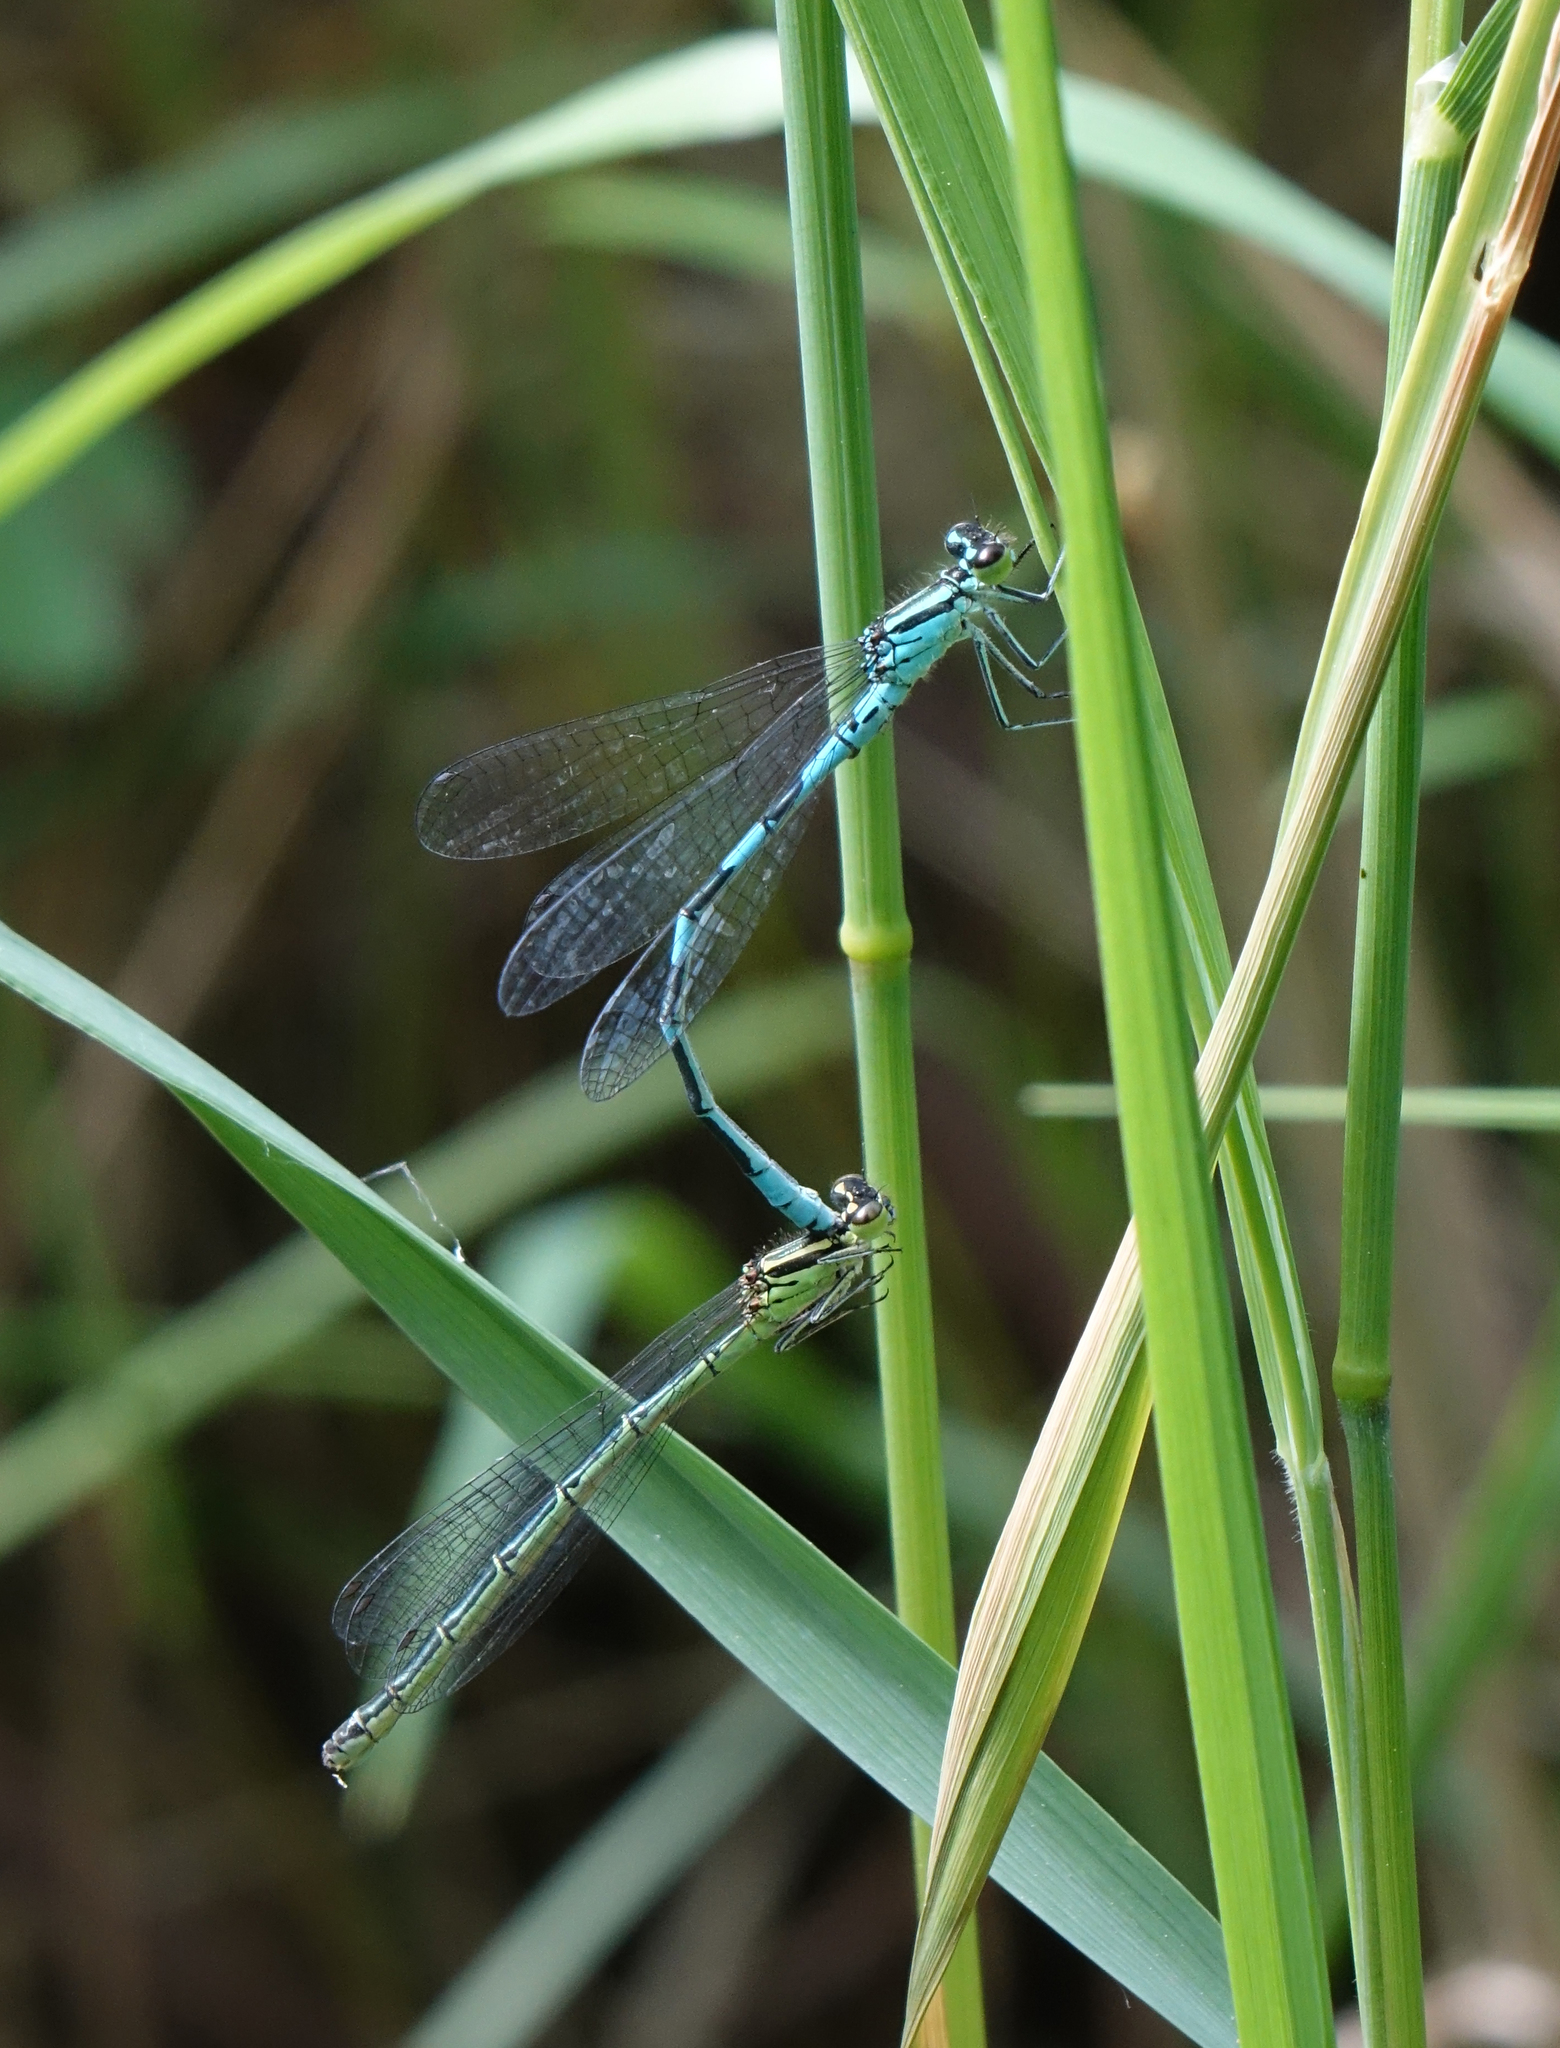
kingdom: Animalia
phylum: Arthropoda
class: Insecta
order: Odonata
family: Coenagrionidae
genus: Coenagrion
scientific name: Coenagrion hastulatum
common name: Spearhead bluet
